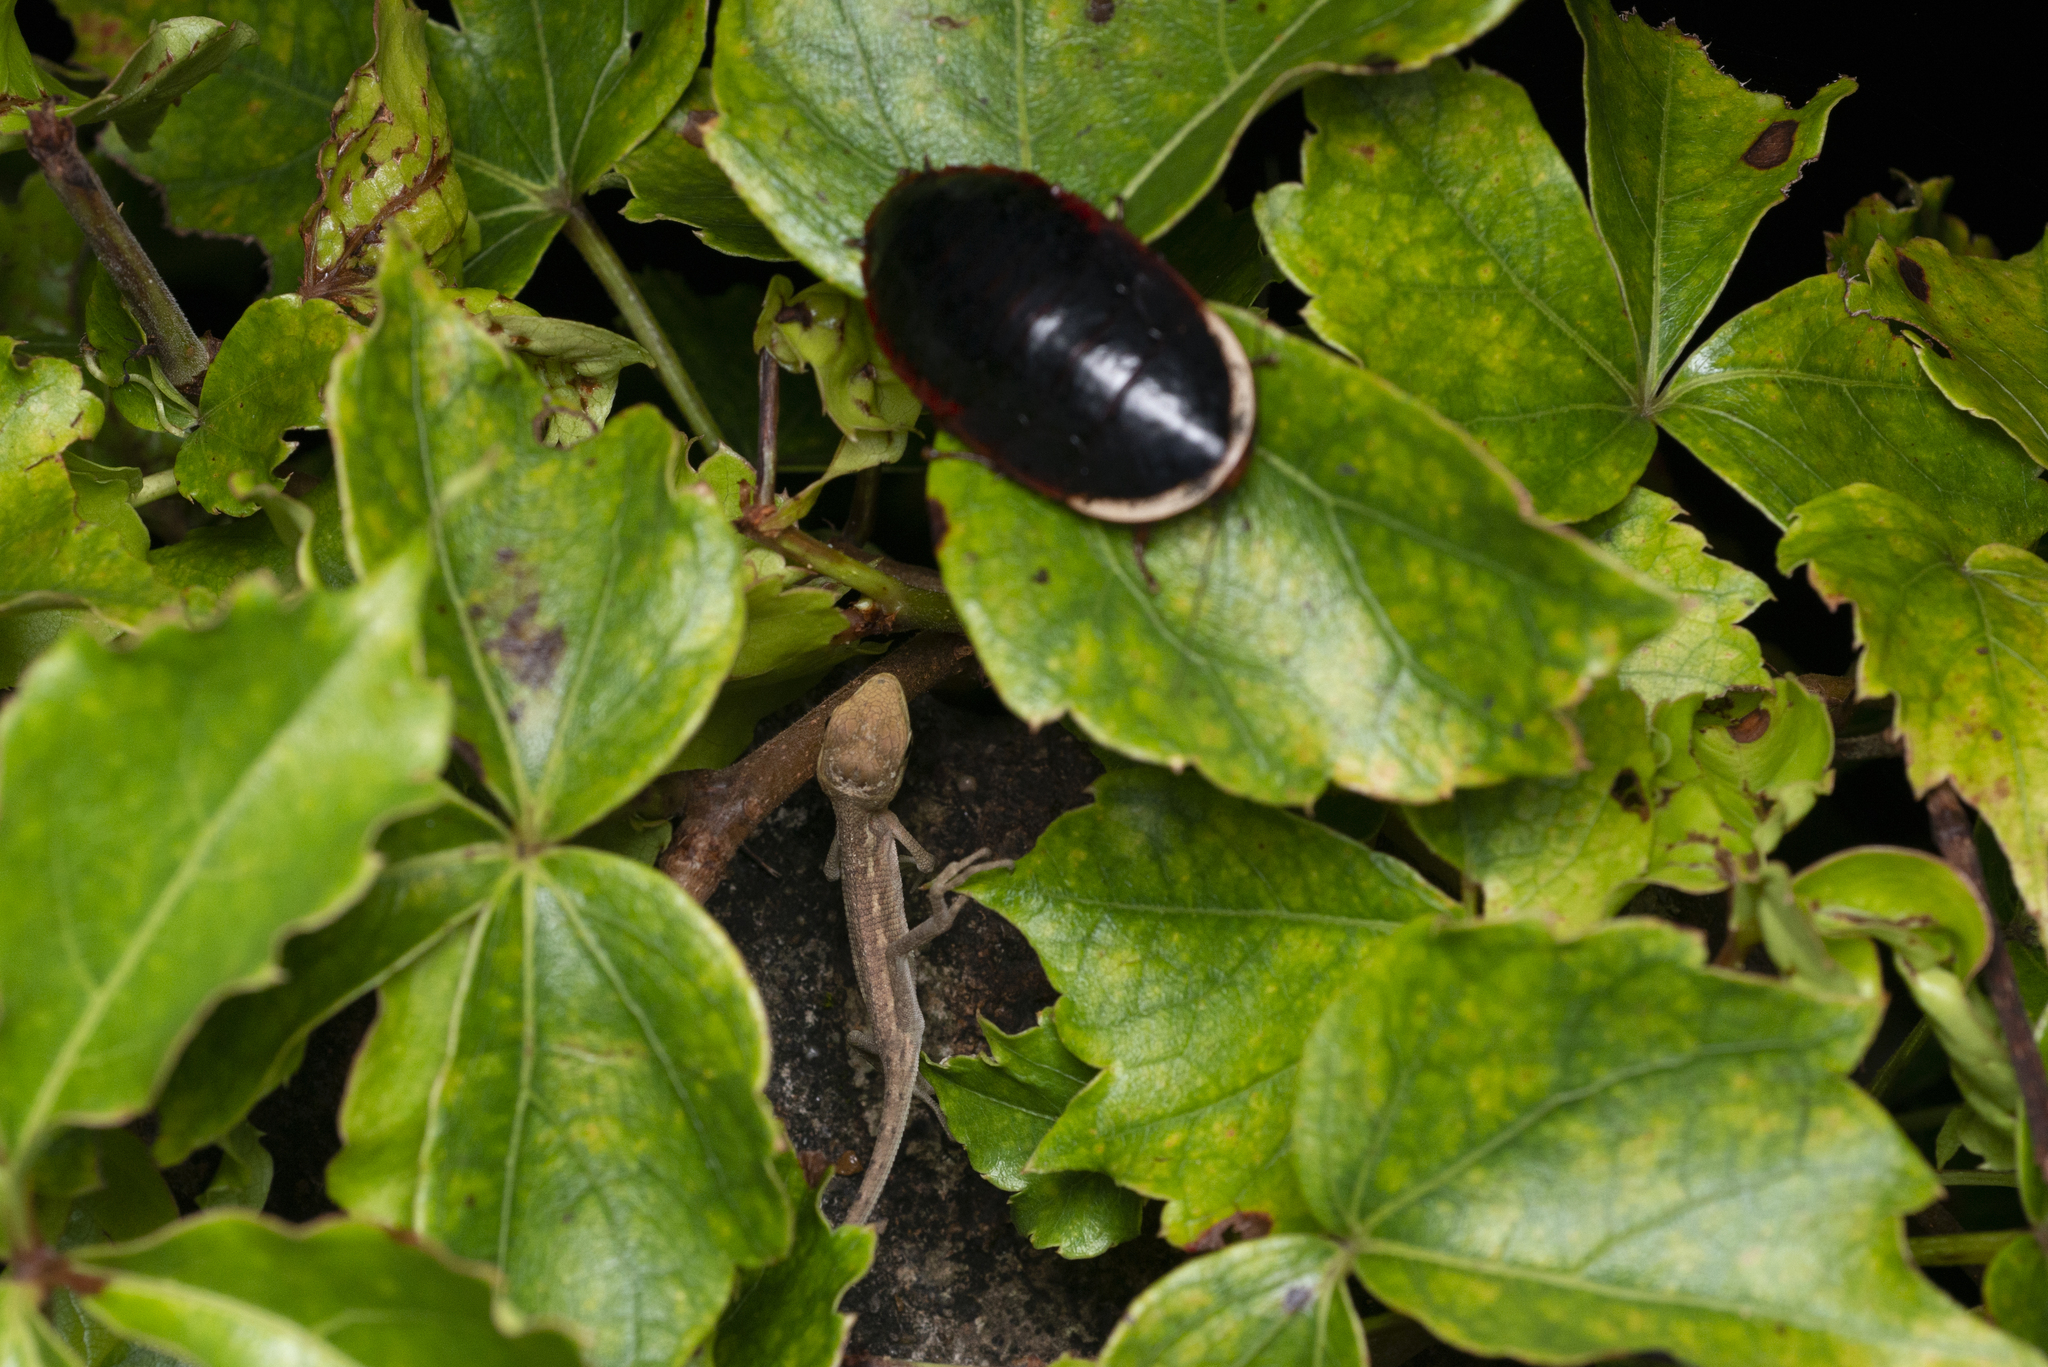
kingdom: Animalia
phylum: Arthropoda
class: Insecta
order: Blattodea
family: Blaberidae
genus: Opisthoplatia
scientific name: Opisthoplatia orientalis
